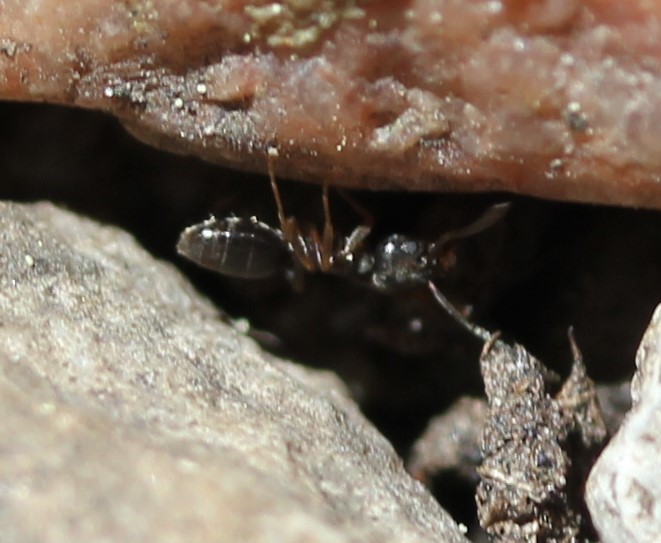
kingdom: Animalia
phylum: Arthropoda
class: Insecta
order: Hymenoptera
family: Formicidae
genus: Tapinoma
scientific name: Tapinoma sessile
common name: Odorous house ant
